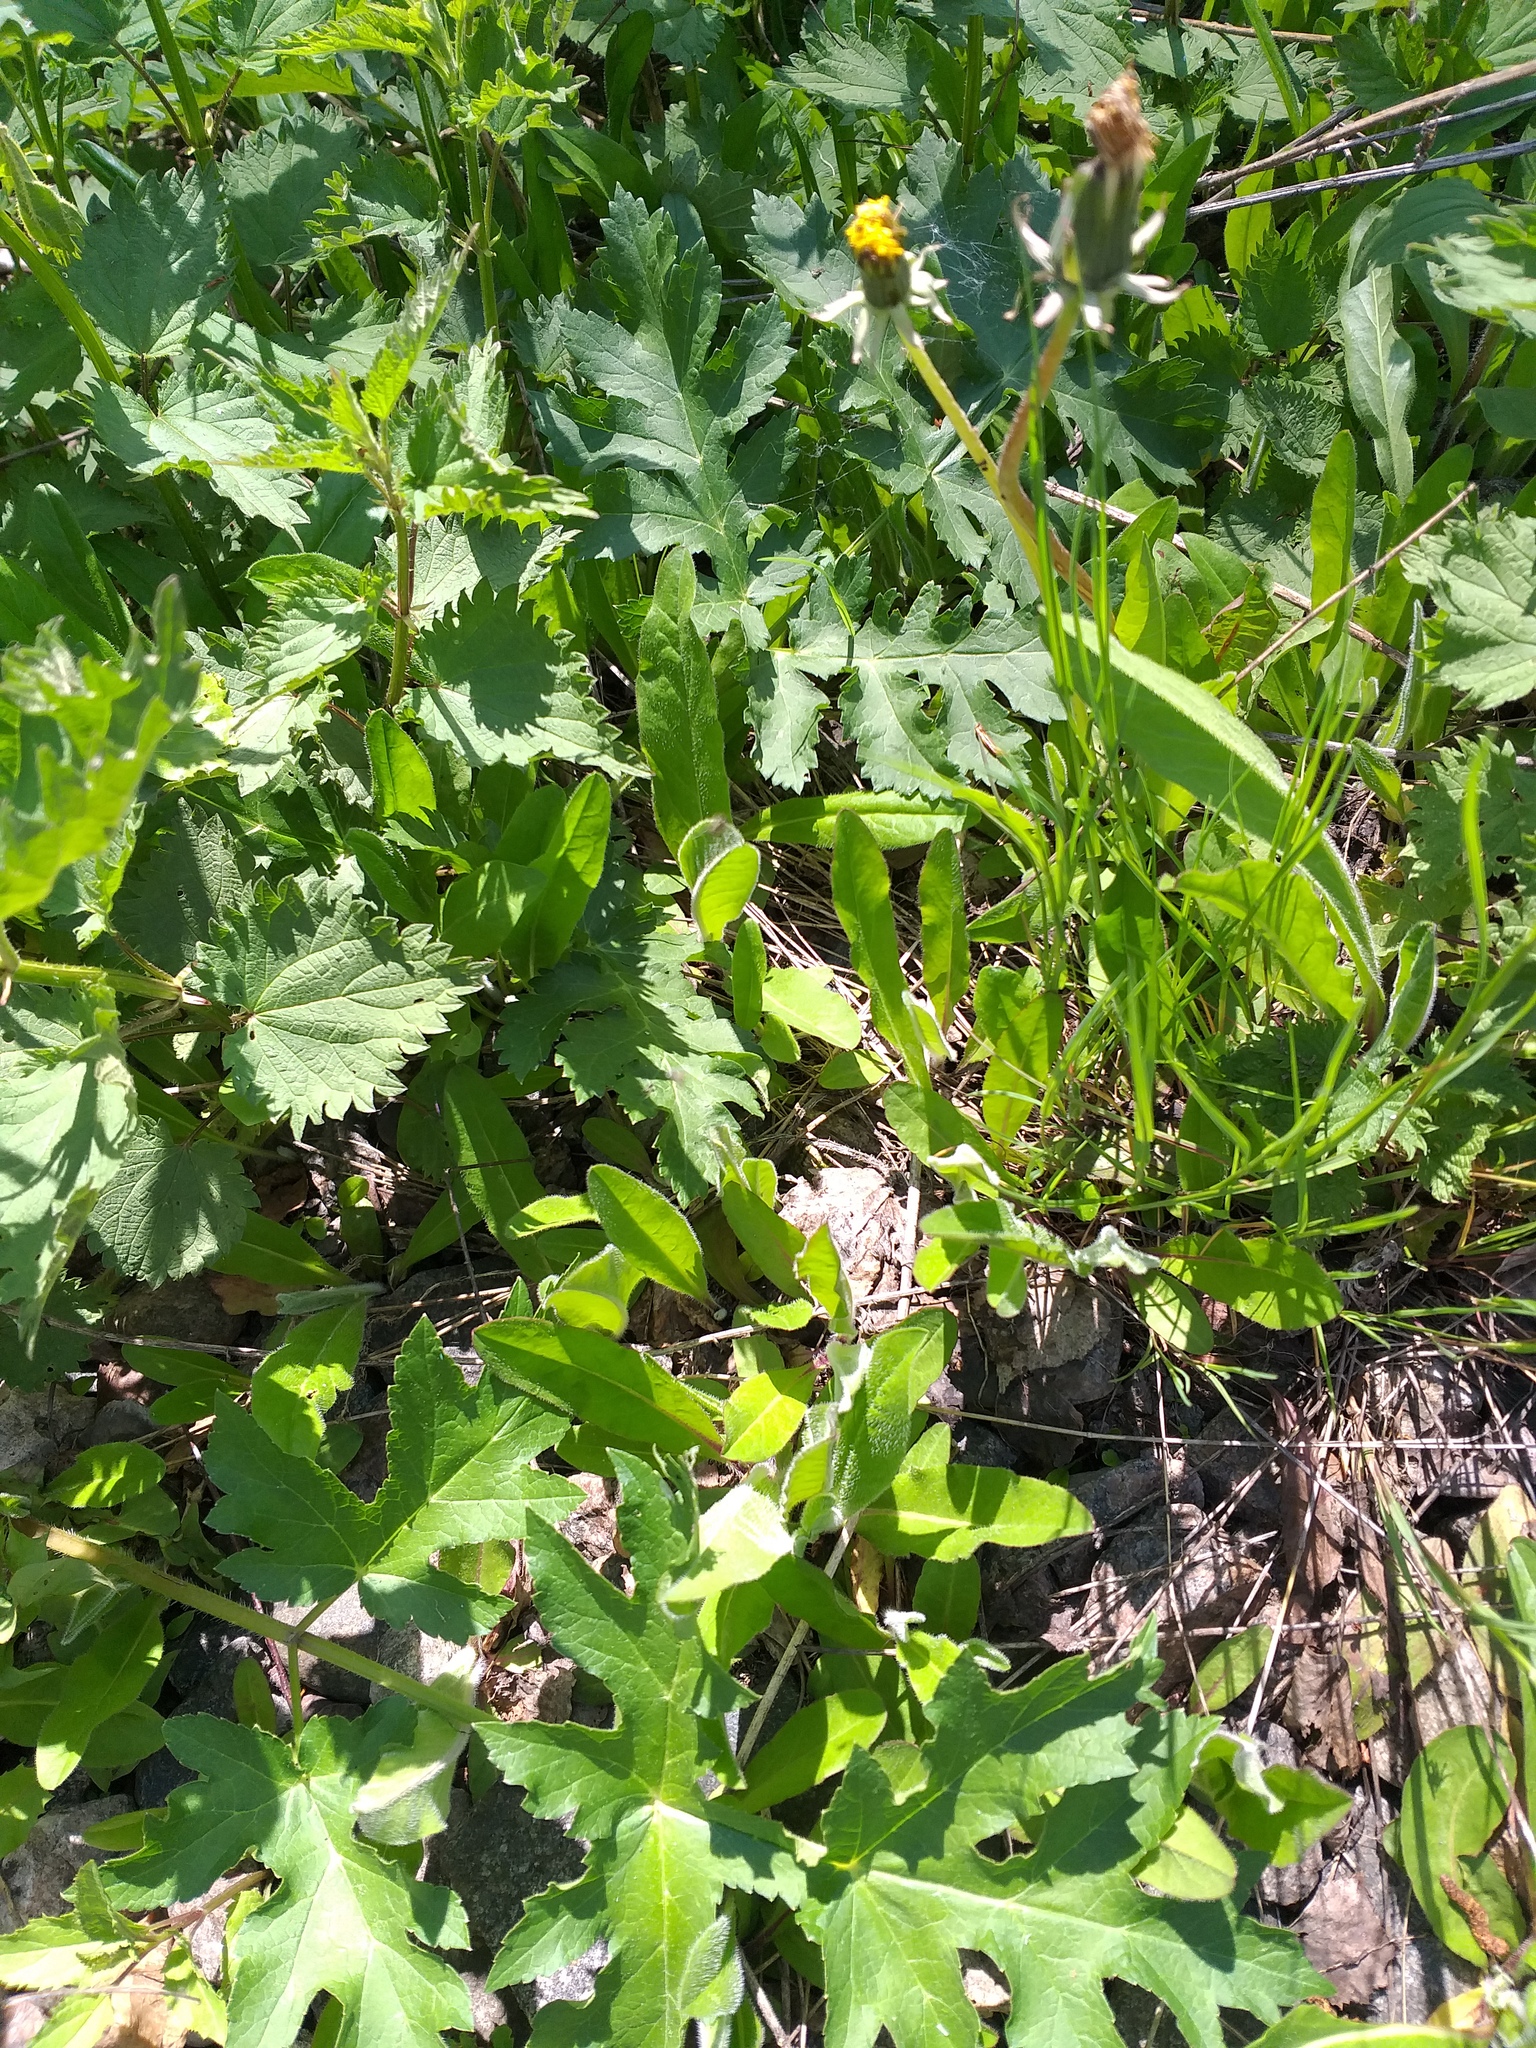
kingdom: Plantae
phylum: Tracheophyta
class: Magnoliopsida
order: Asterales
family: Asteraceae
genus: Pilosella
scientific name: Pilosella
